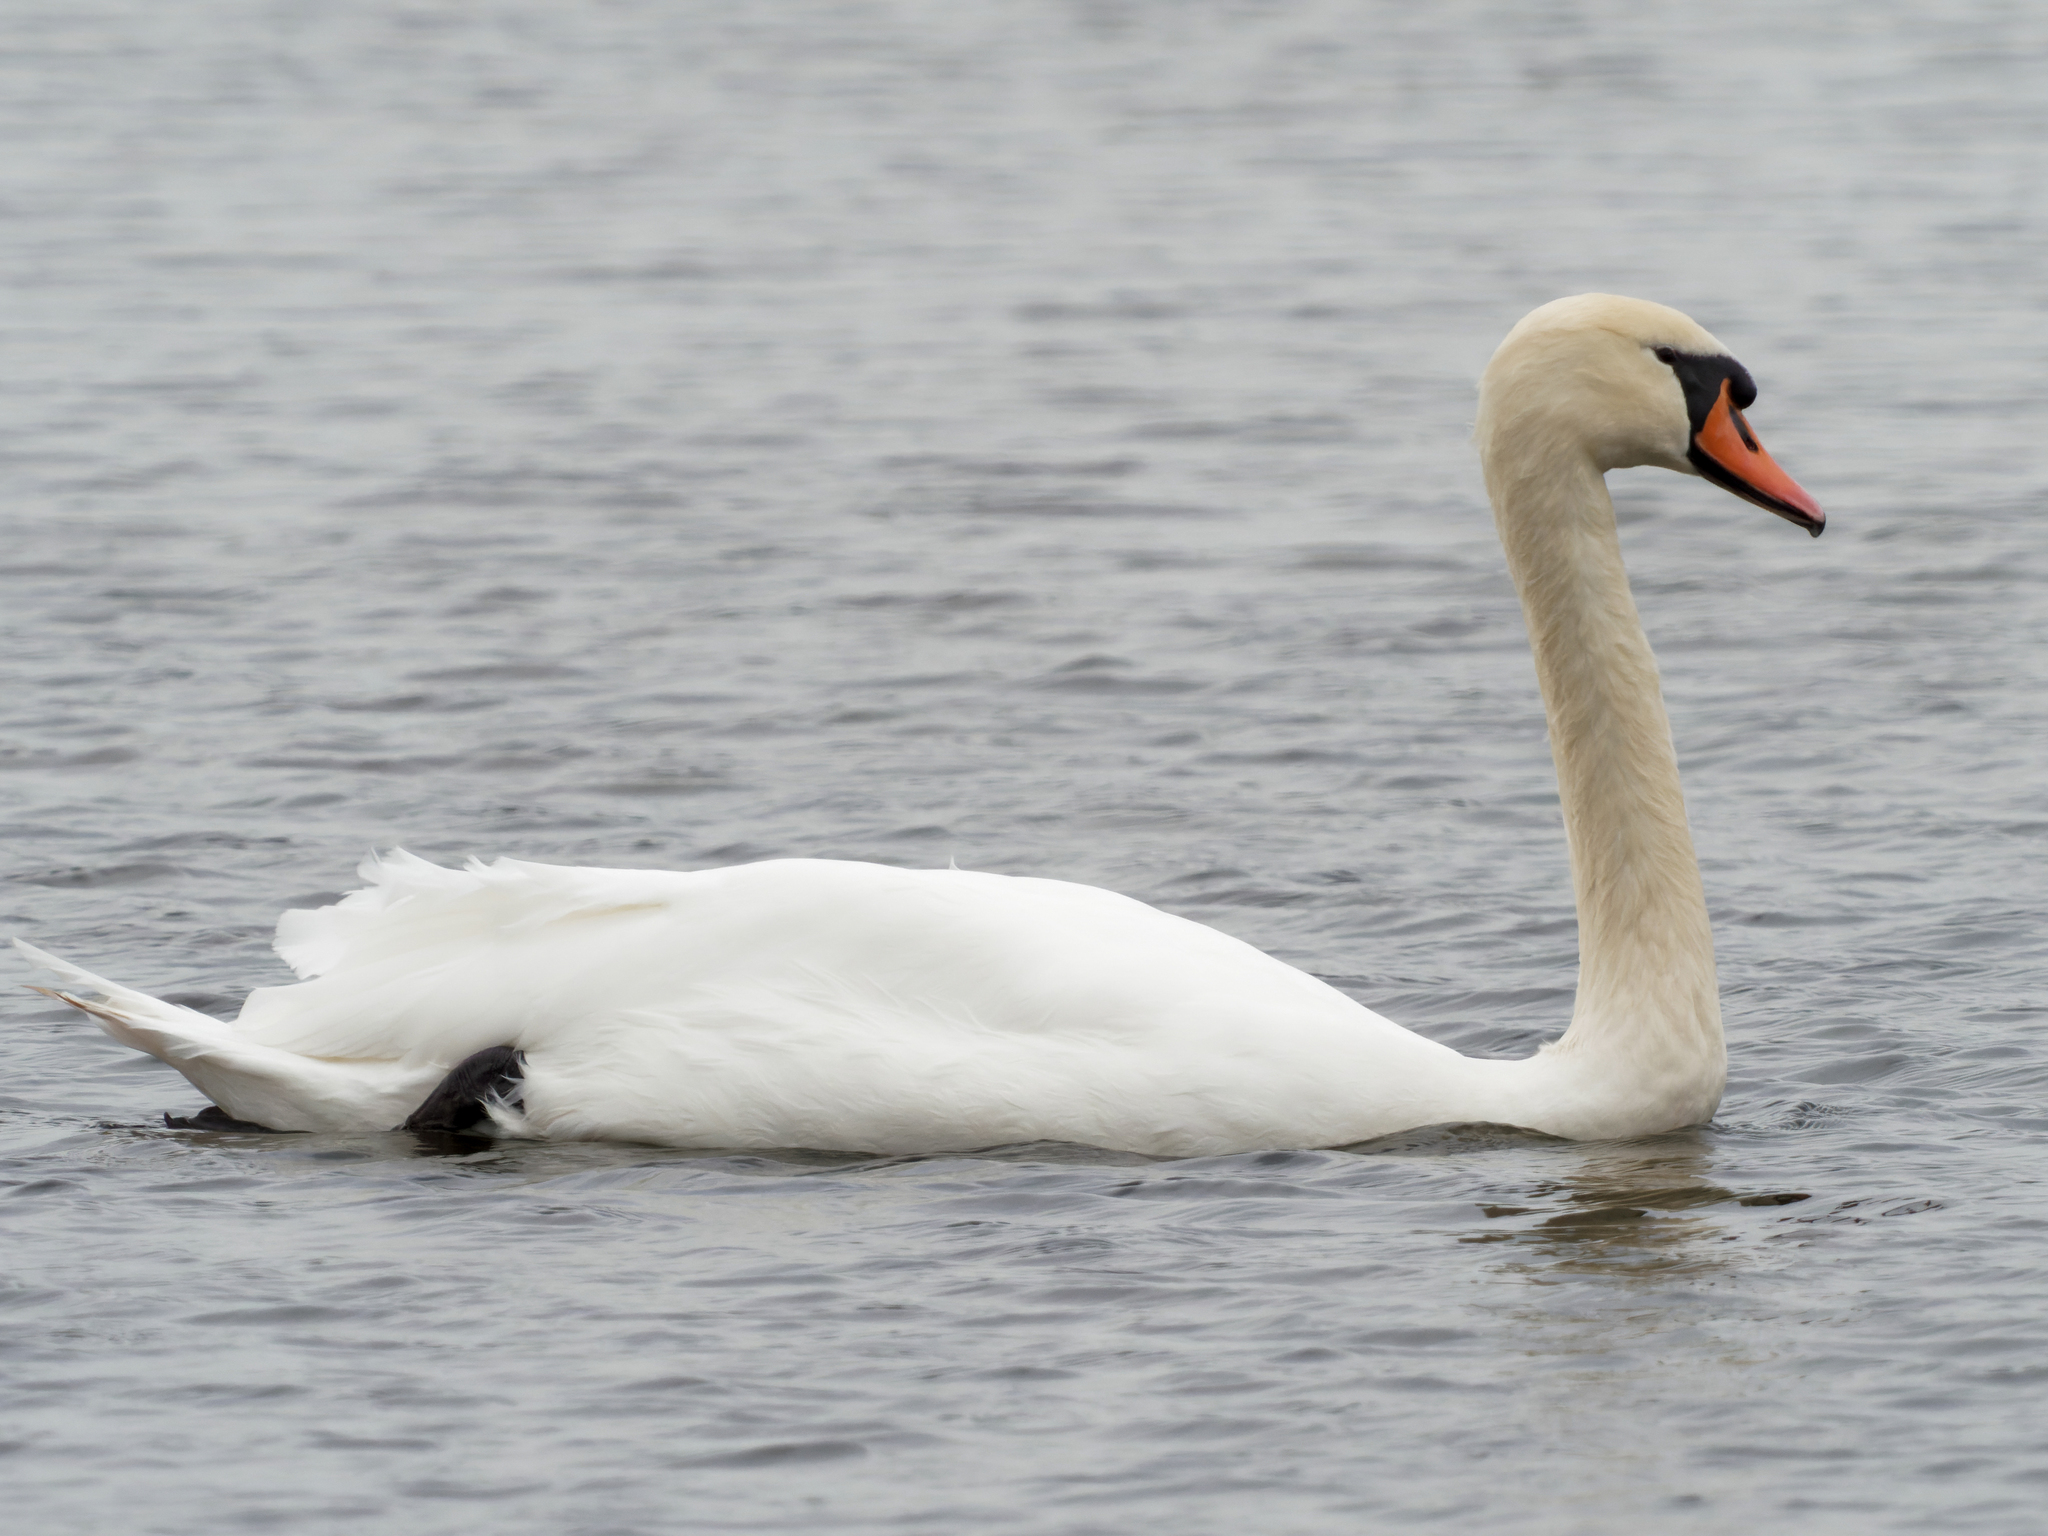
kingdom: Animalia
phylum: Chordata
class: Aves
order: Anseriformes
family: Anatidae
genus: Cygnus
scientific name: Cygnus olor
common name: Mute swan
